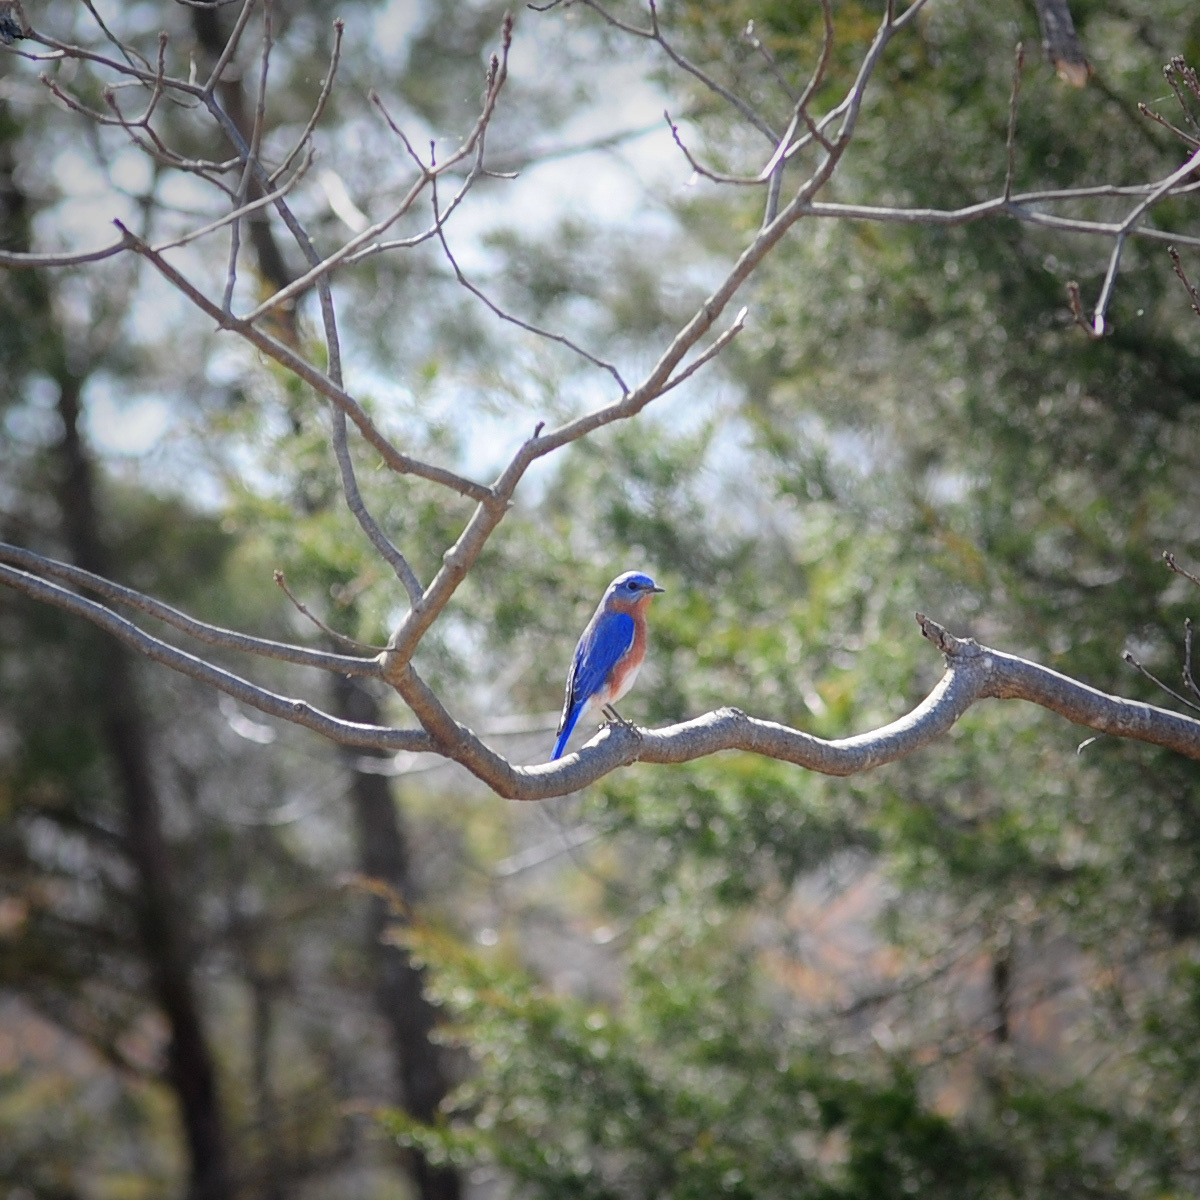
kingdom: Animalia
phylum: Chordata
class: Aves
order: Passeriformes
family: Turdidae
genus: Sialia
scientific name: Sialia sialis
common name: Eastern bluebird
